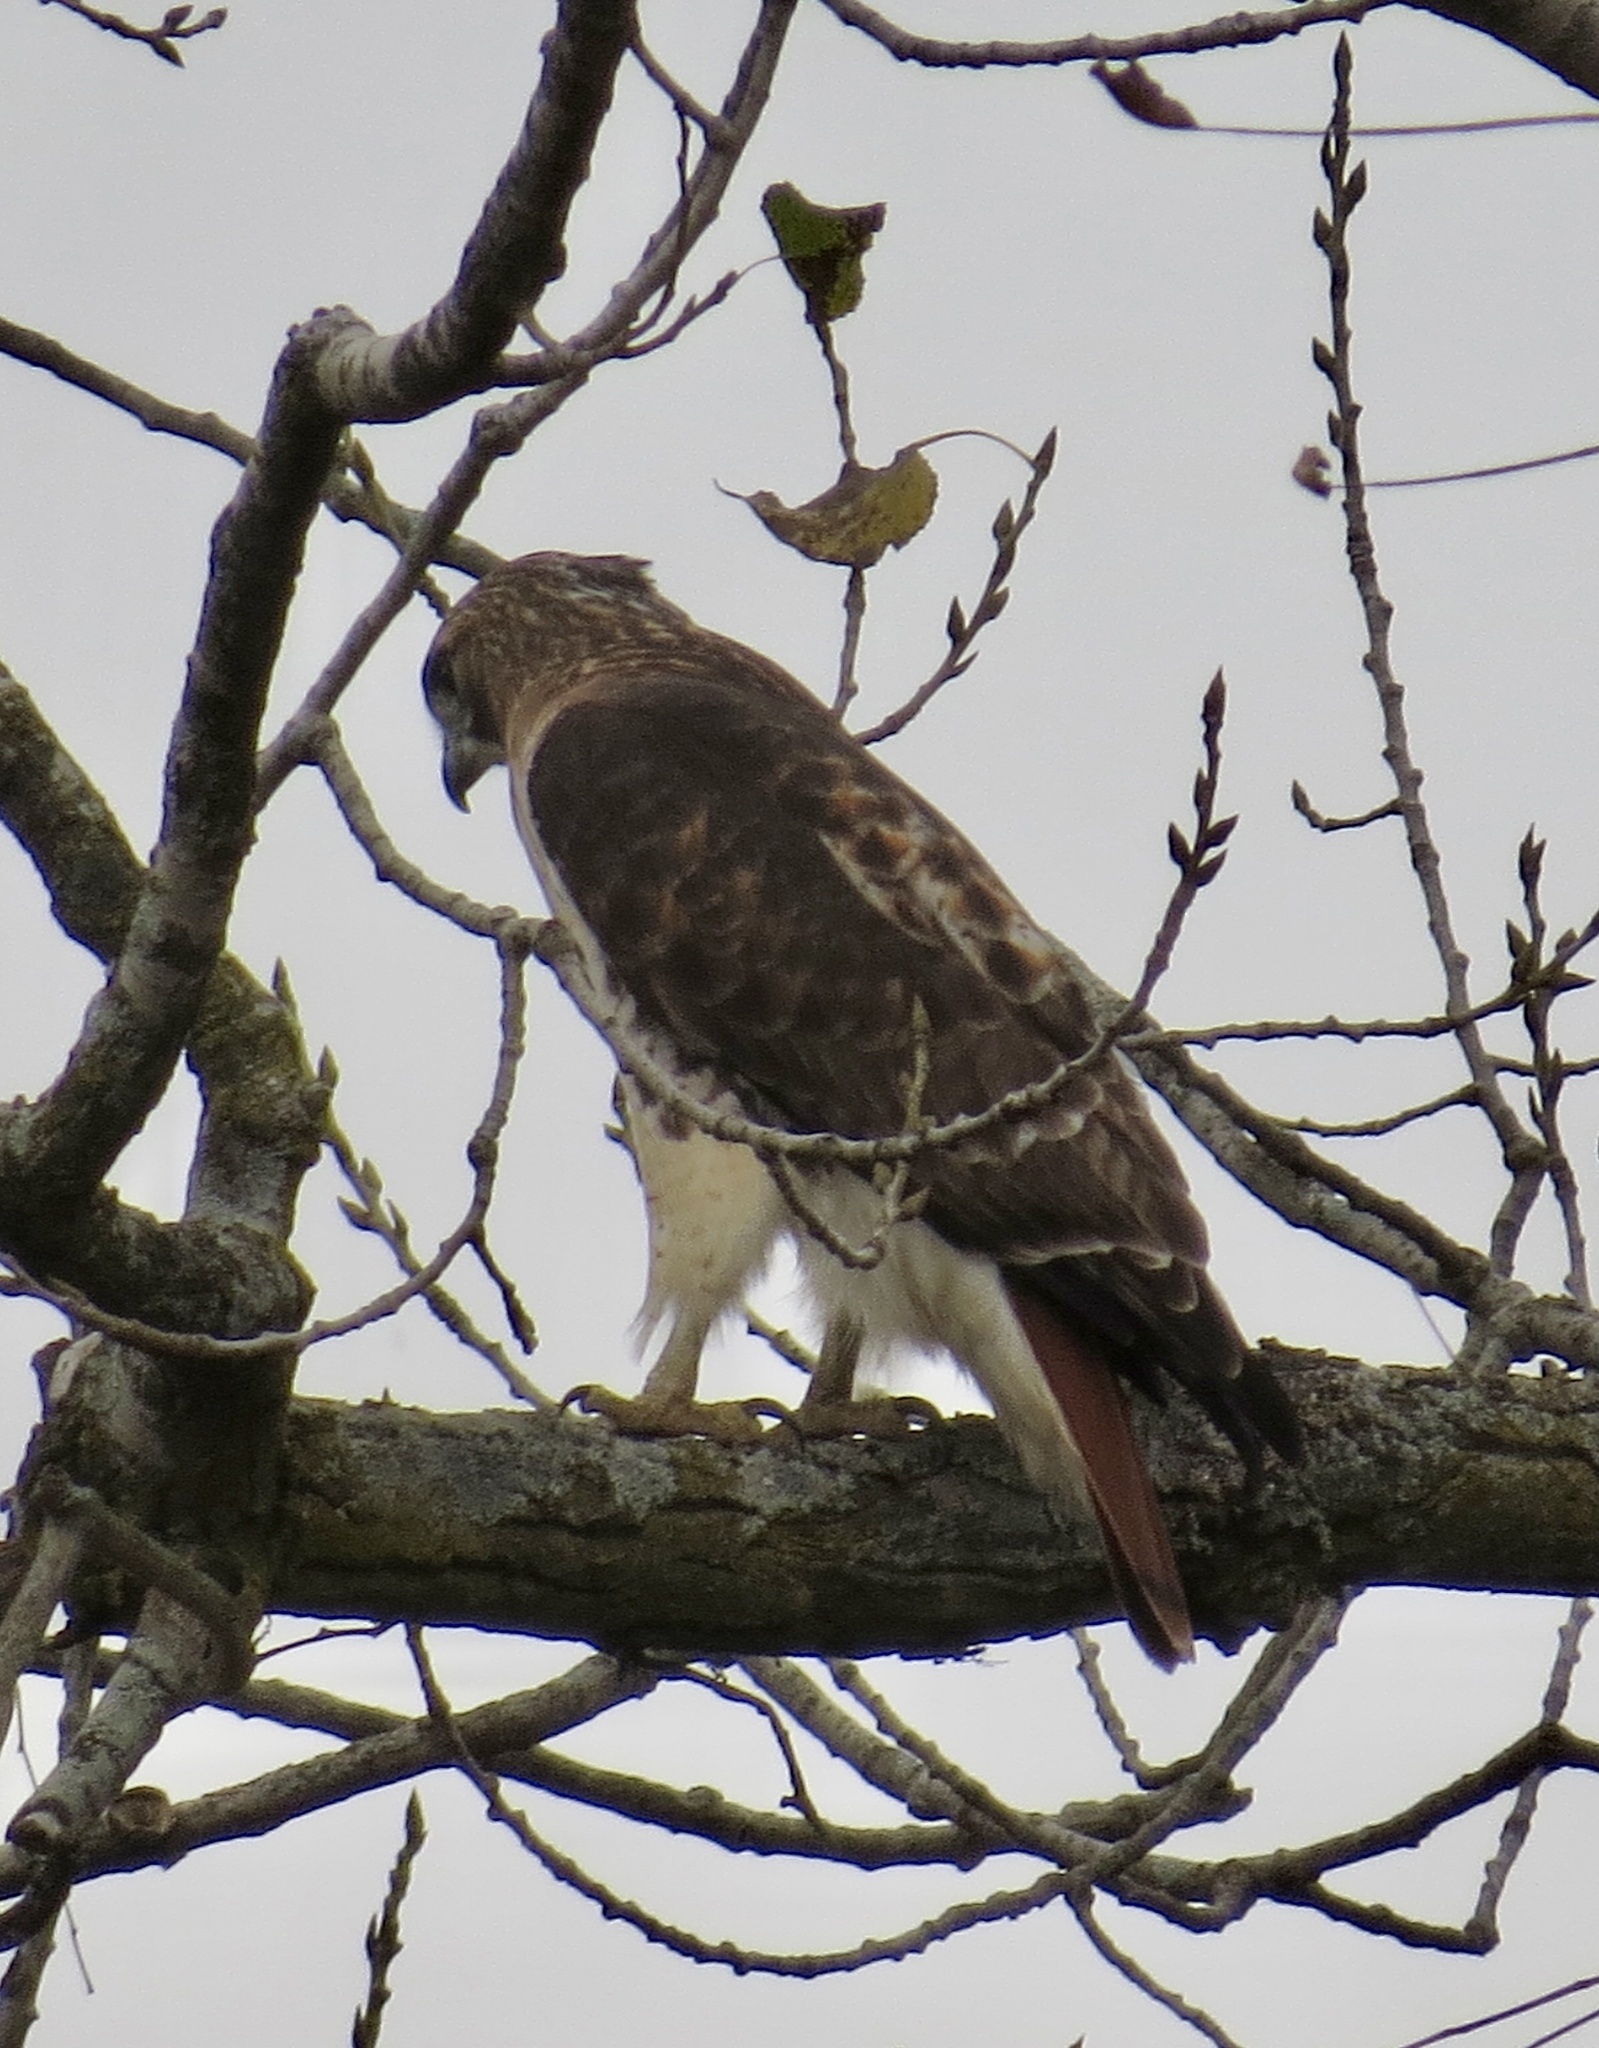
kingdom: Animalia
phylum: Chordata
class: Aves
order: Accipitriformes
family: Accipitridae
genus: Buteo
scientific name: Buteo jamaicensis
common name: Red-tailed hawk
